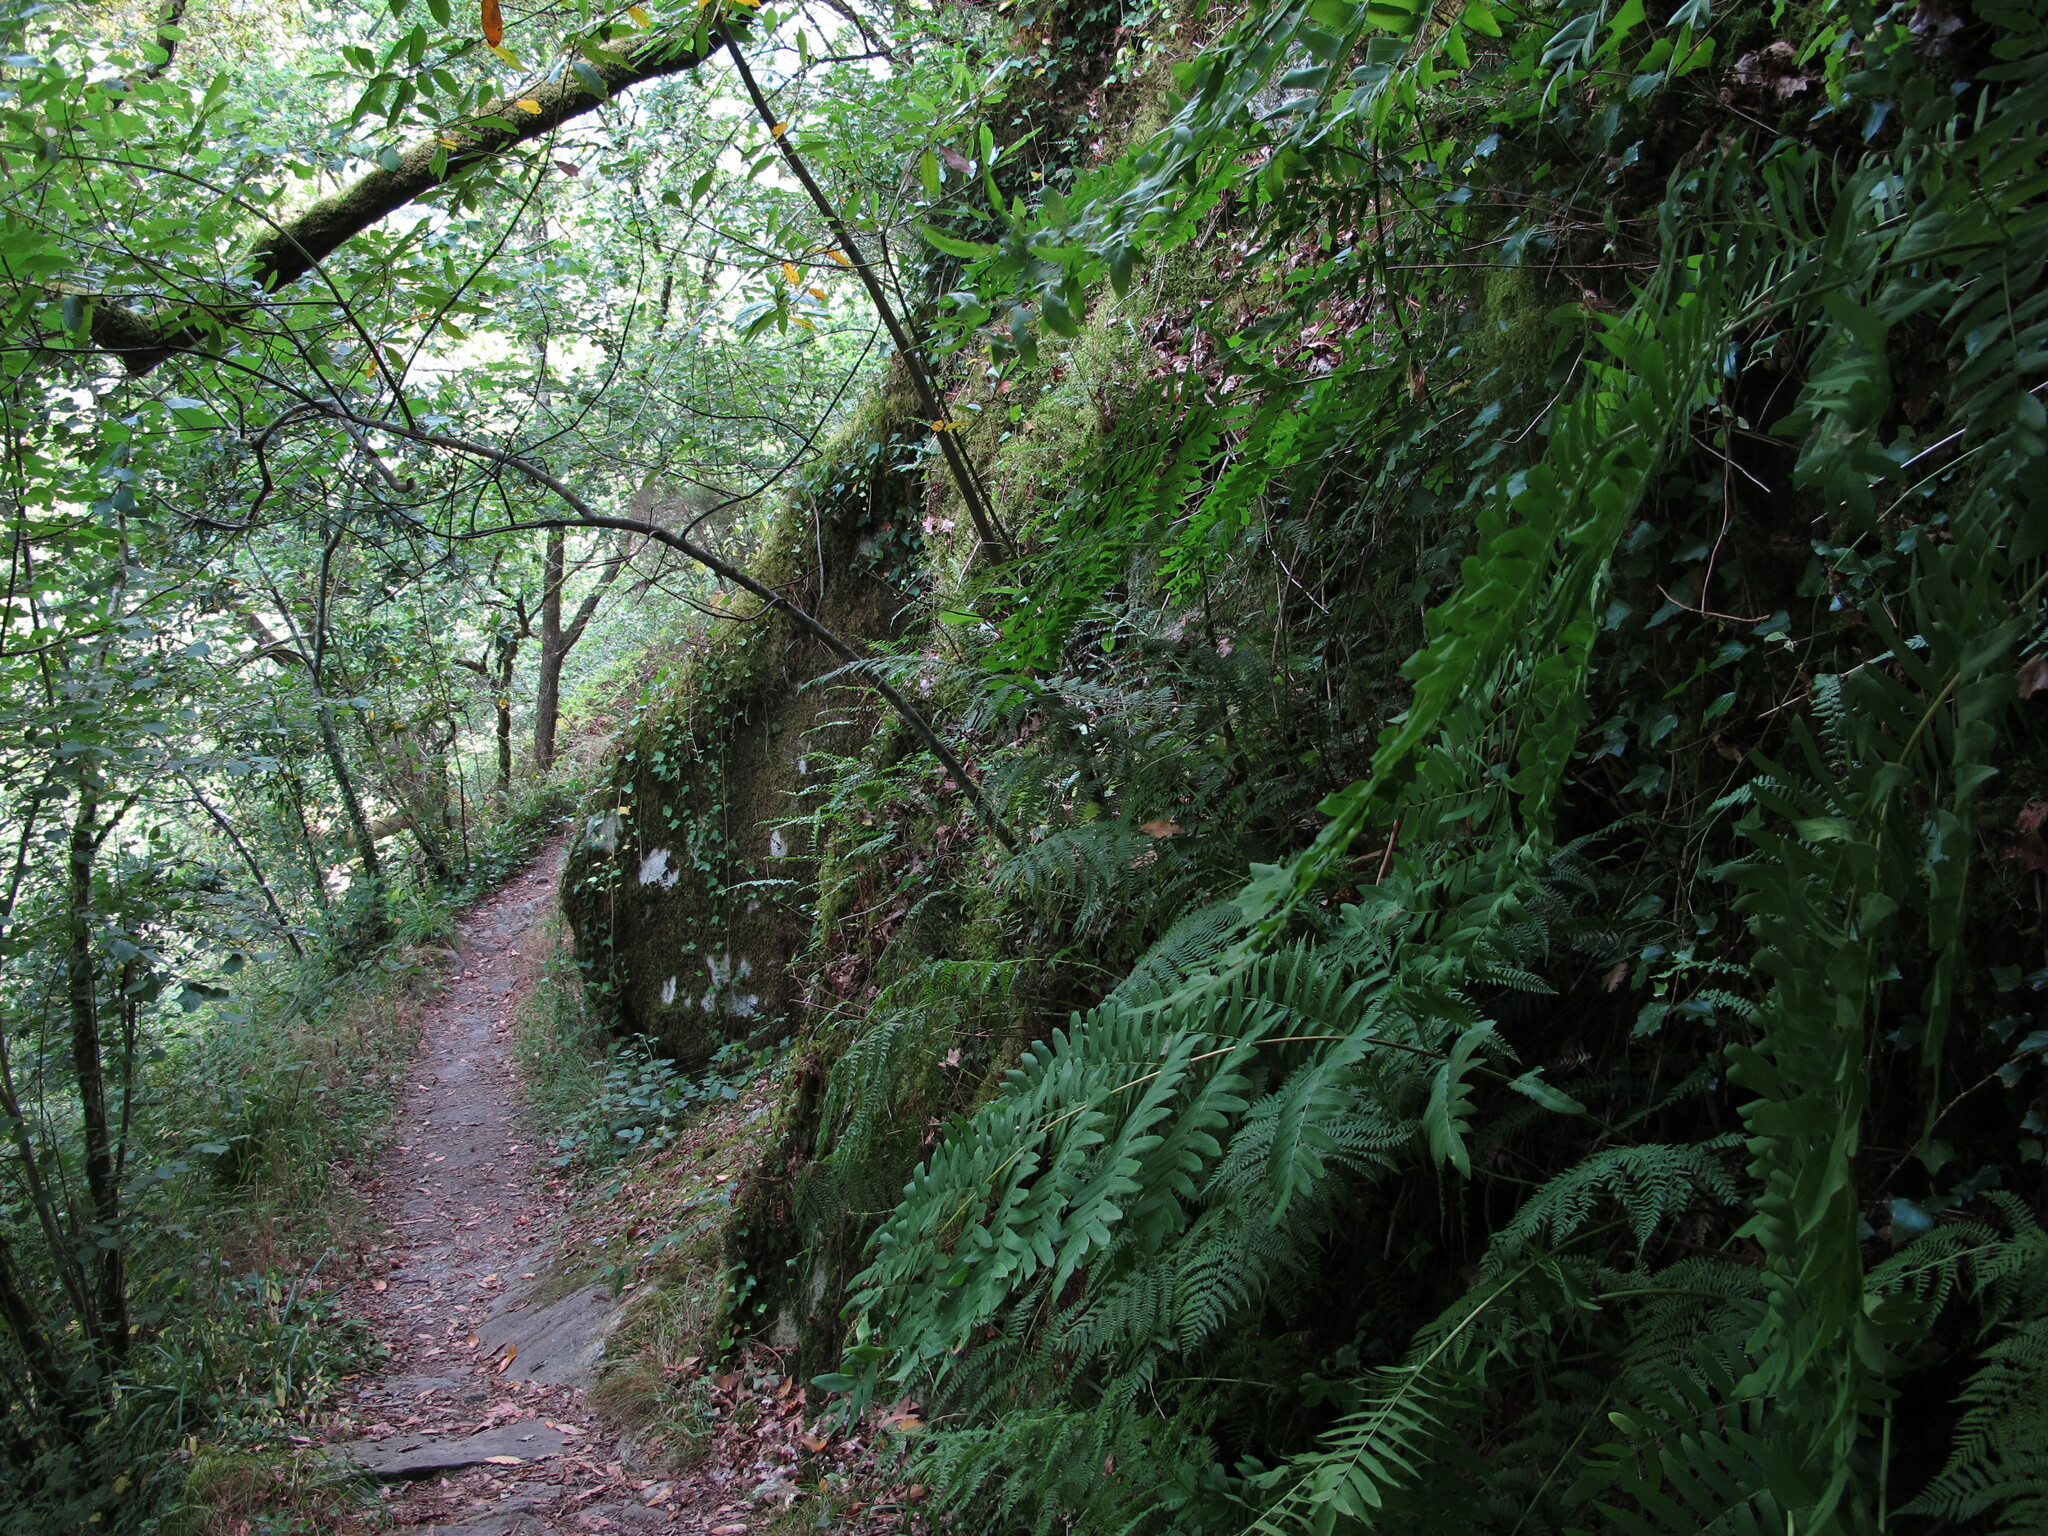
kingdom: Plantae
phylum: Marchantiophyta
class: Jungermanniopsida
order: Pallaviciniales
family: Pallaviciniaceae
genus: Pallavicinia
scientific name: Pallavicinia lyellii
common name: Veilwort
